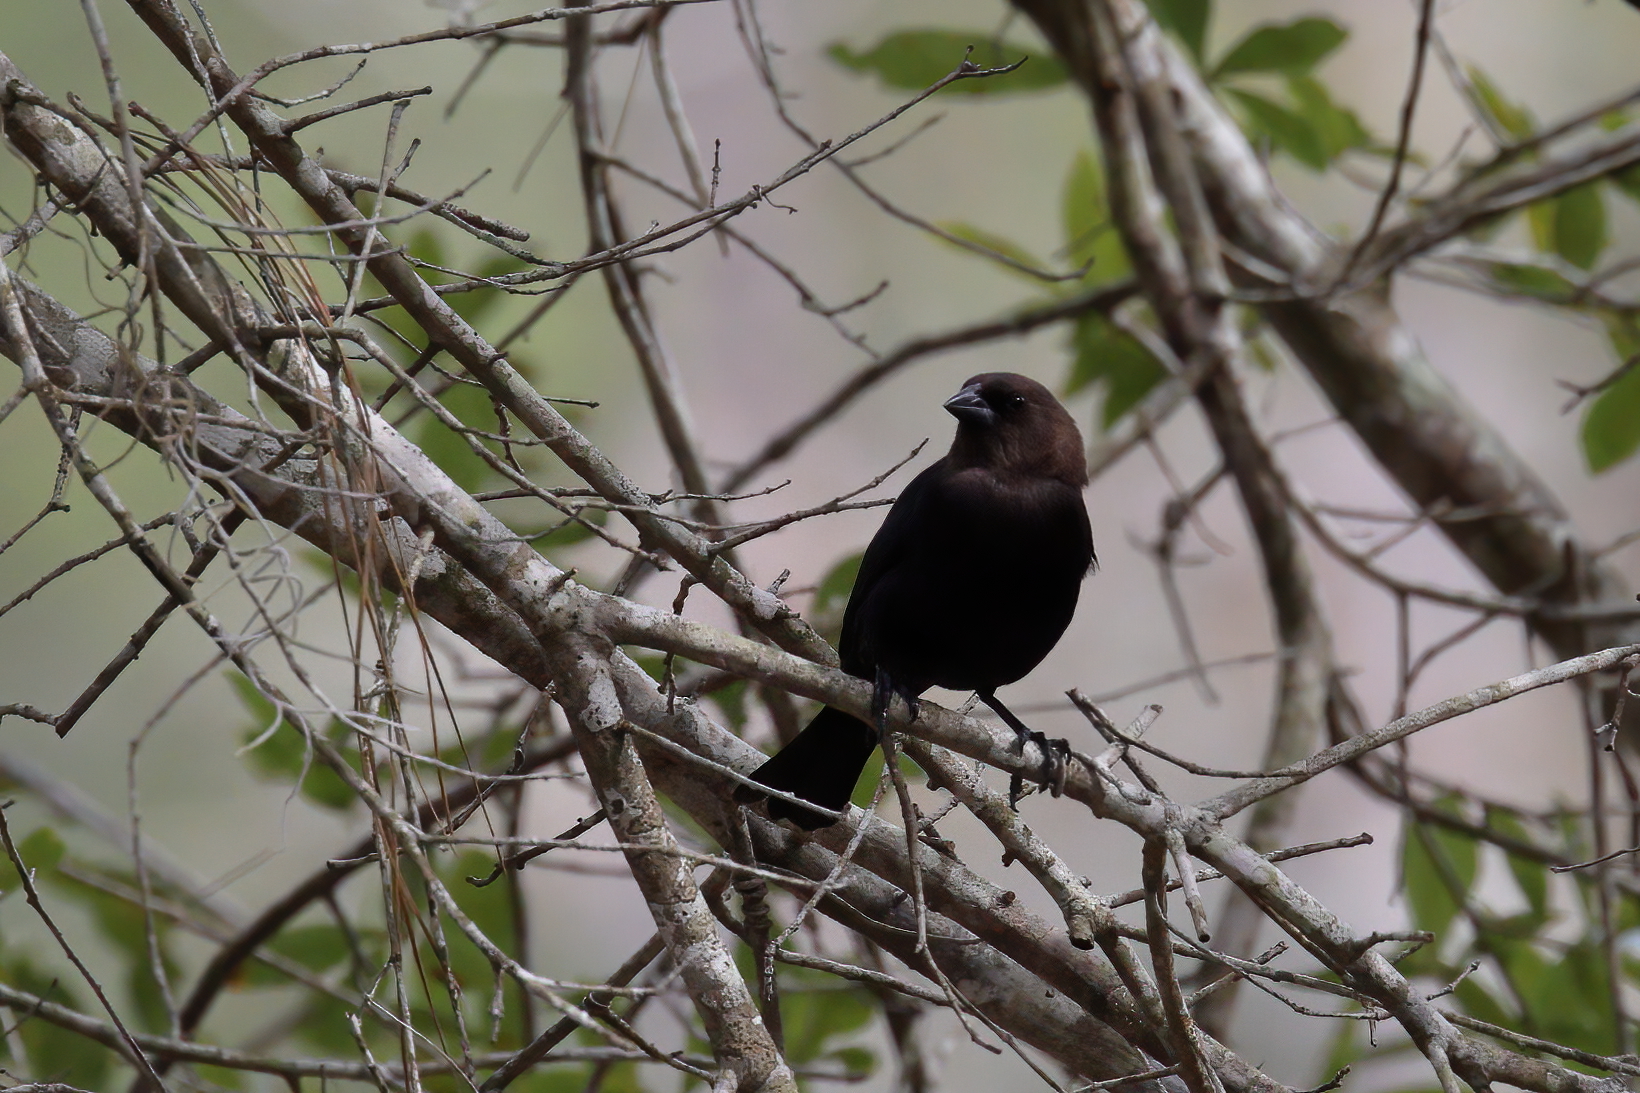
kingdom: Animalia
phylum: Chordata
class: Aves
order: Passeriformes
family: Icteridae
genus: Molothrus
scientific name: Molothrus ater
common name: Brown-headed cowbird
